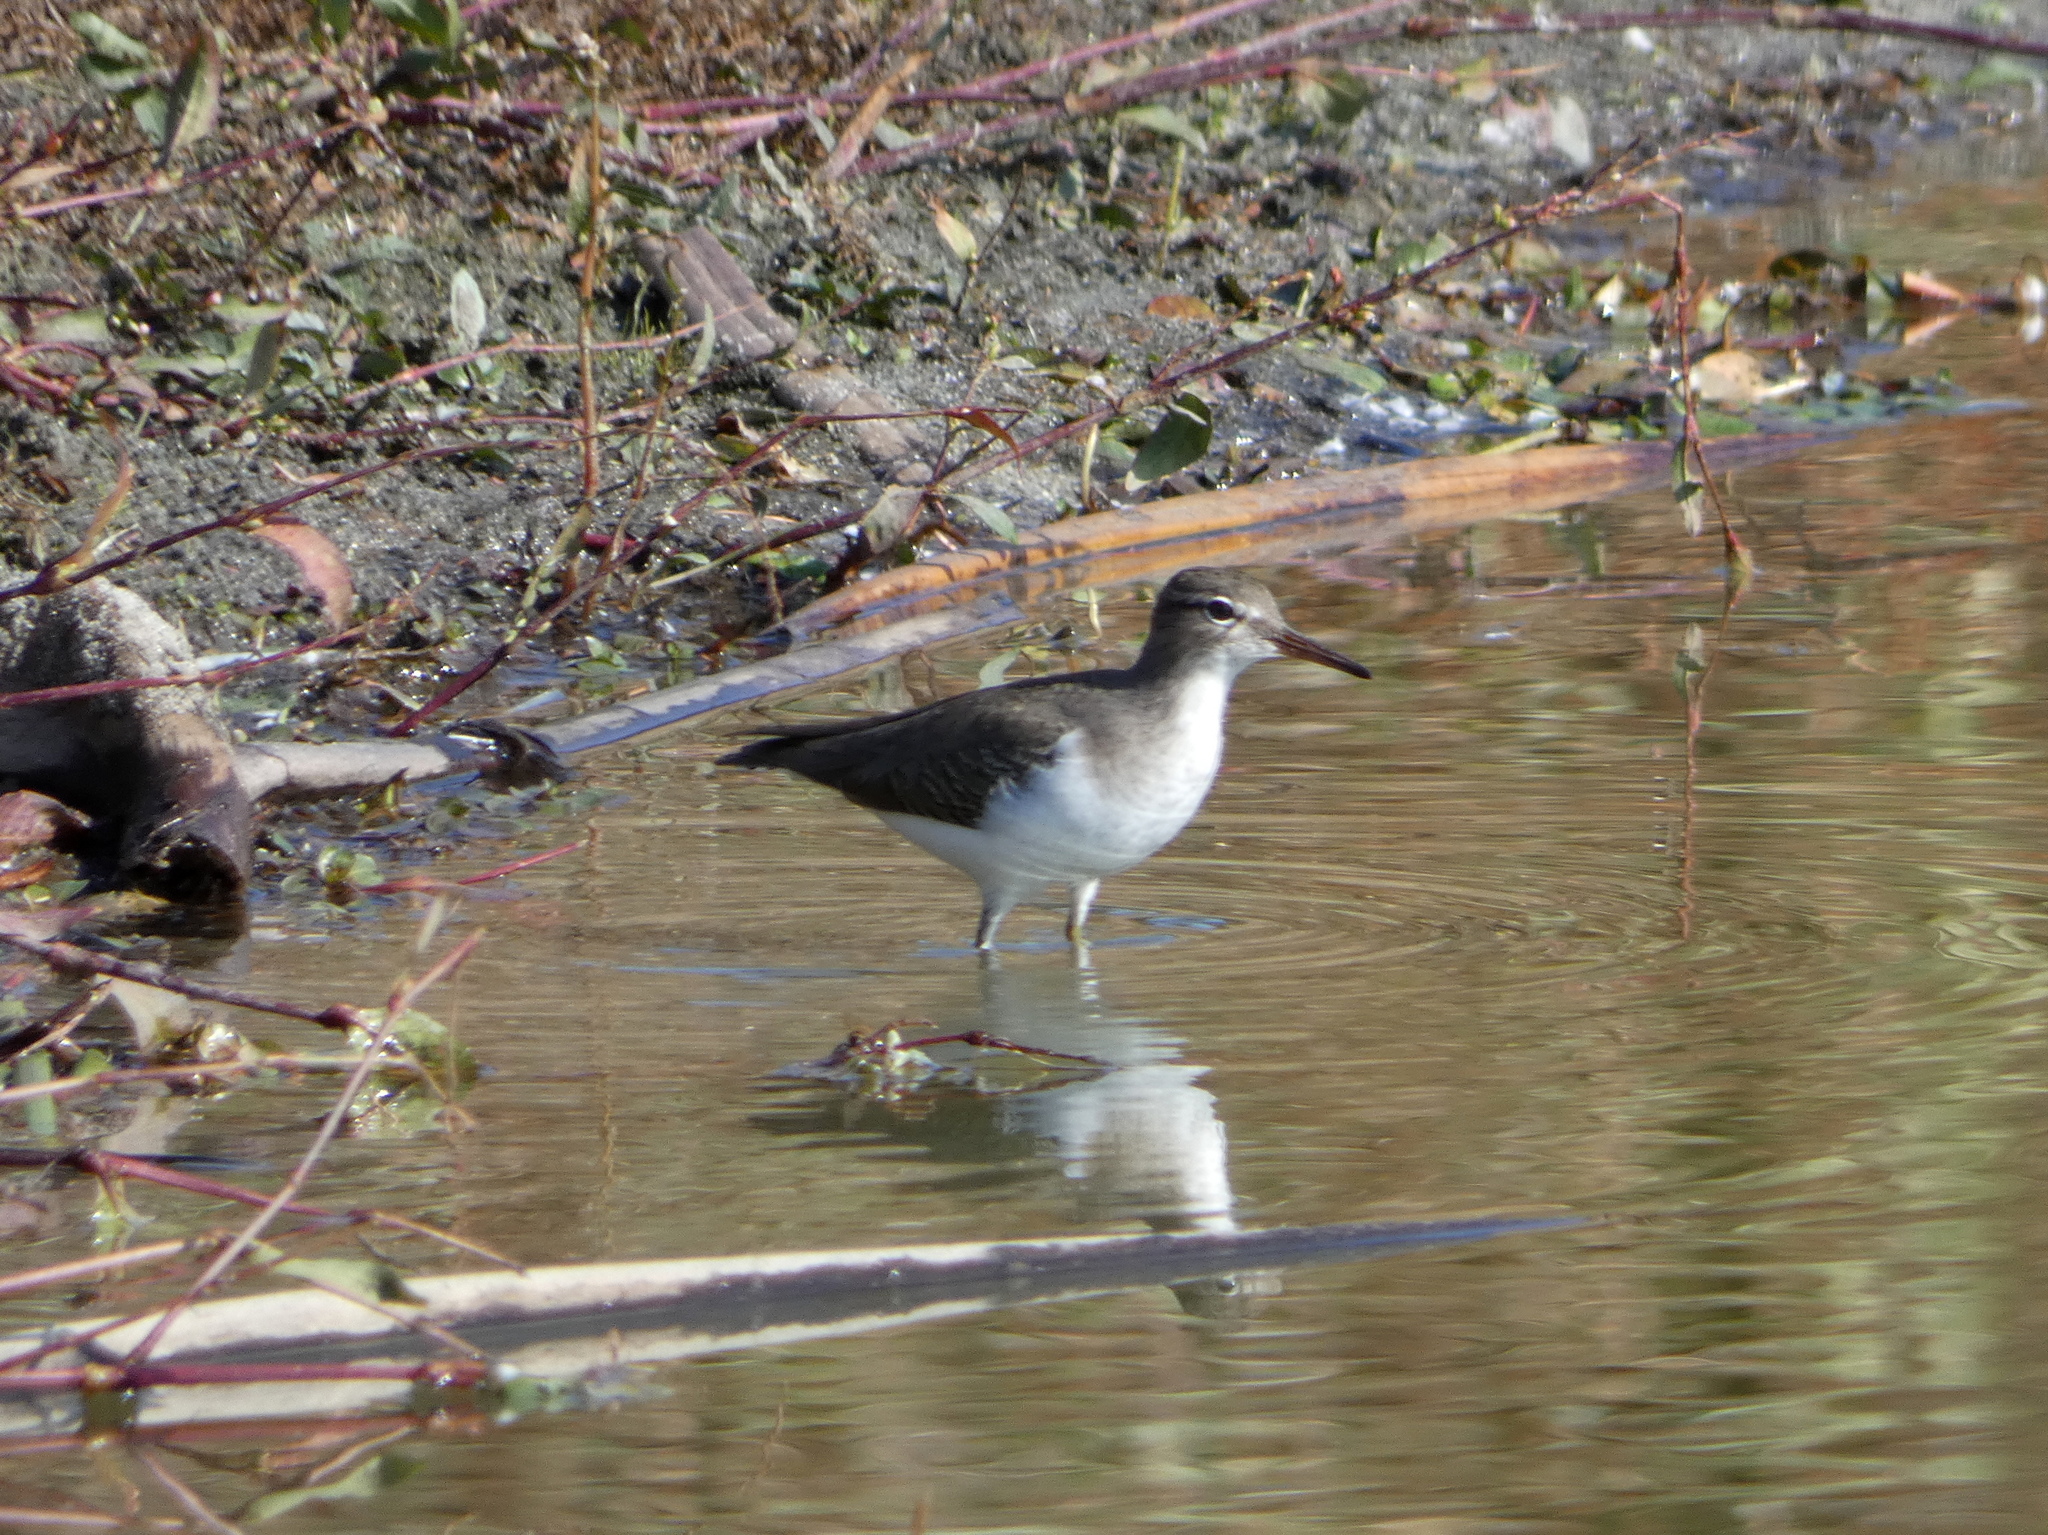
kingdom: Animalia
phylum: Chordata
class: Aves
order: Charadriiformes
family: Scolopacidae
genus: Actitis
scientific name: Actitis macularius
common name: Spotted sandpiper
